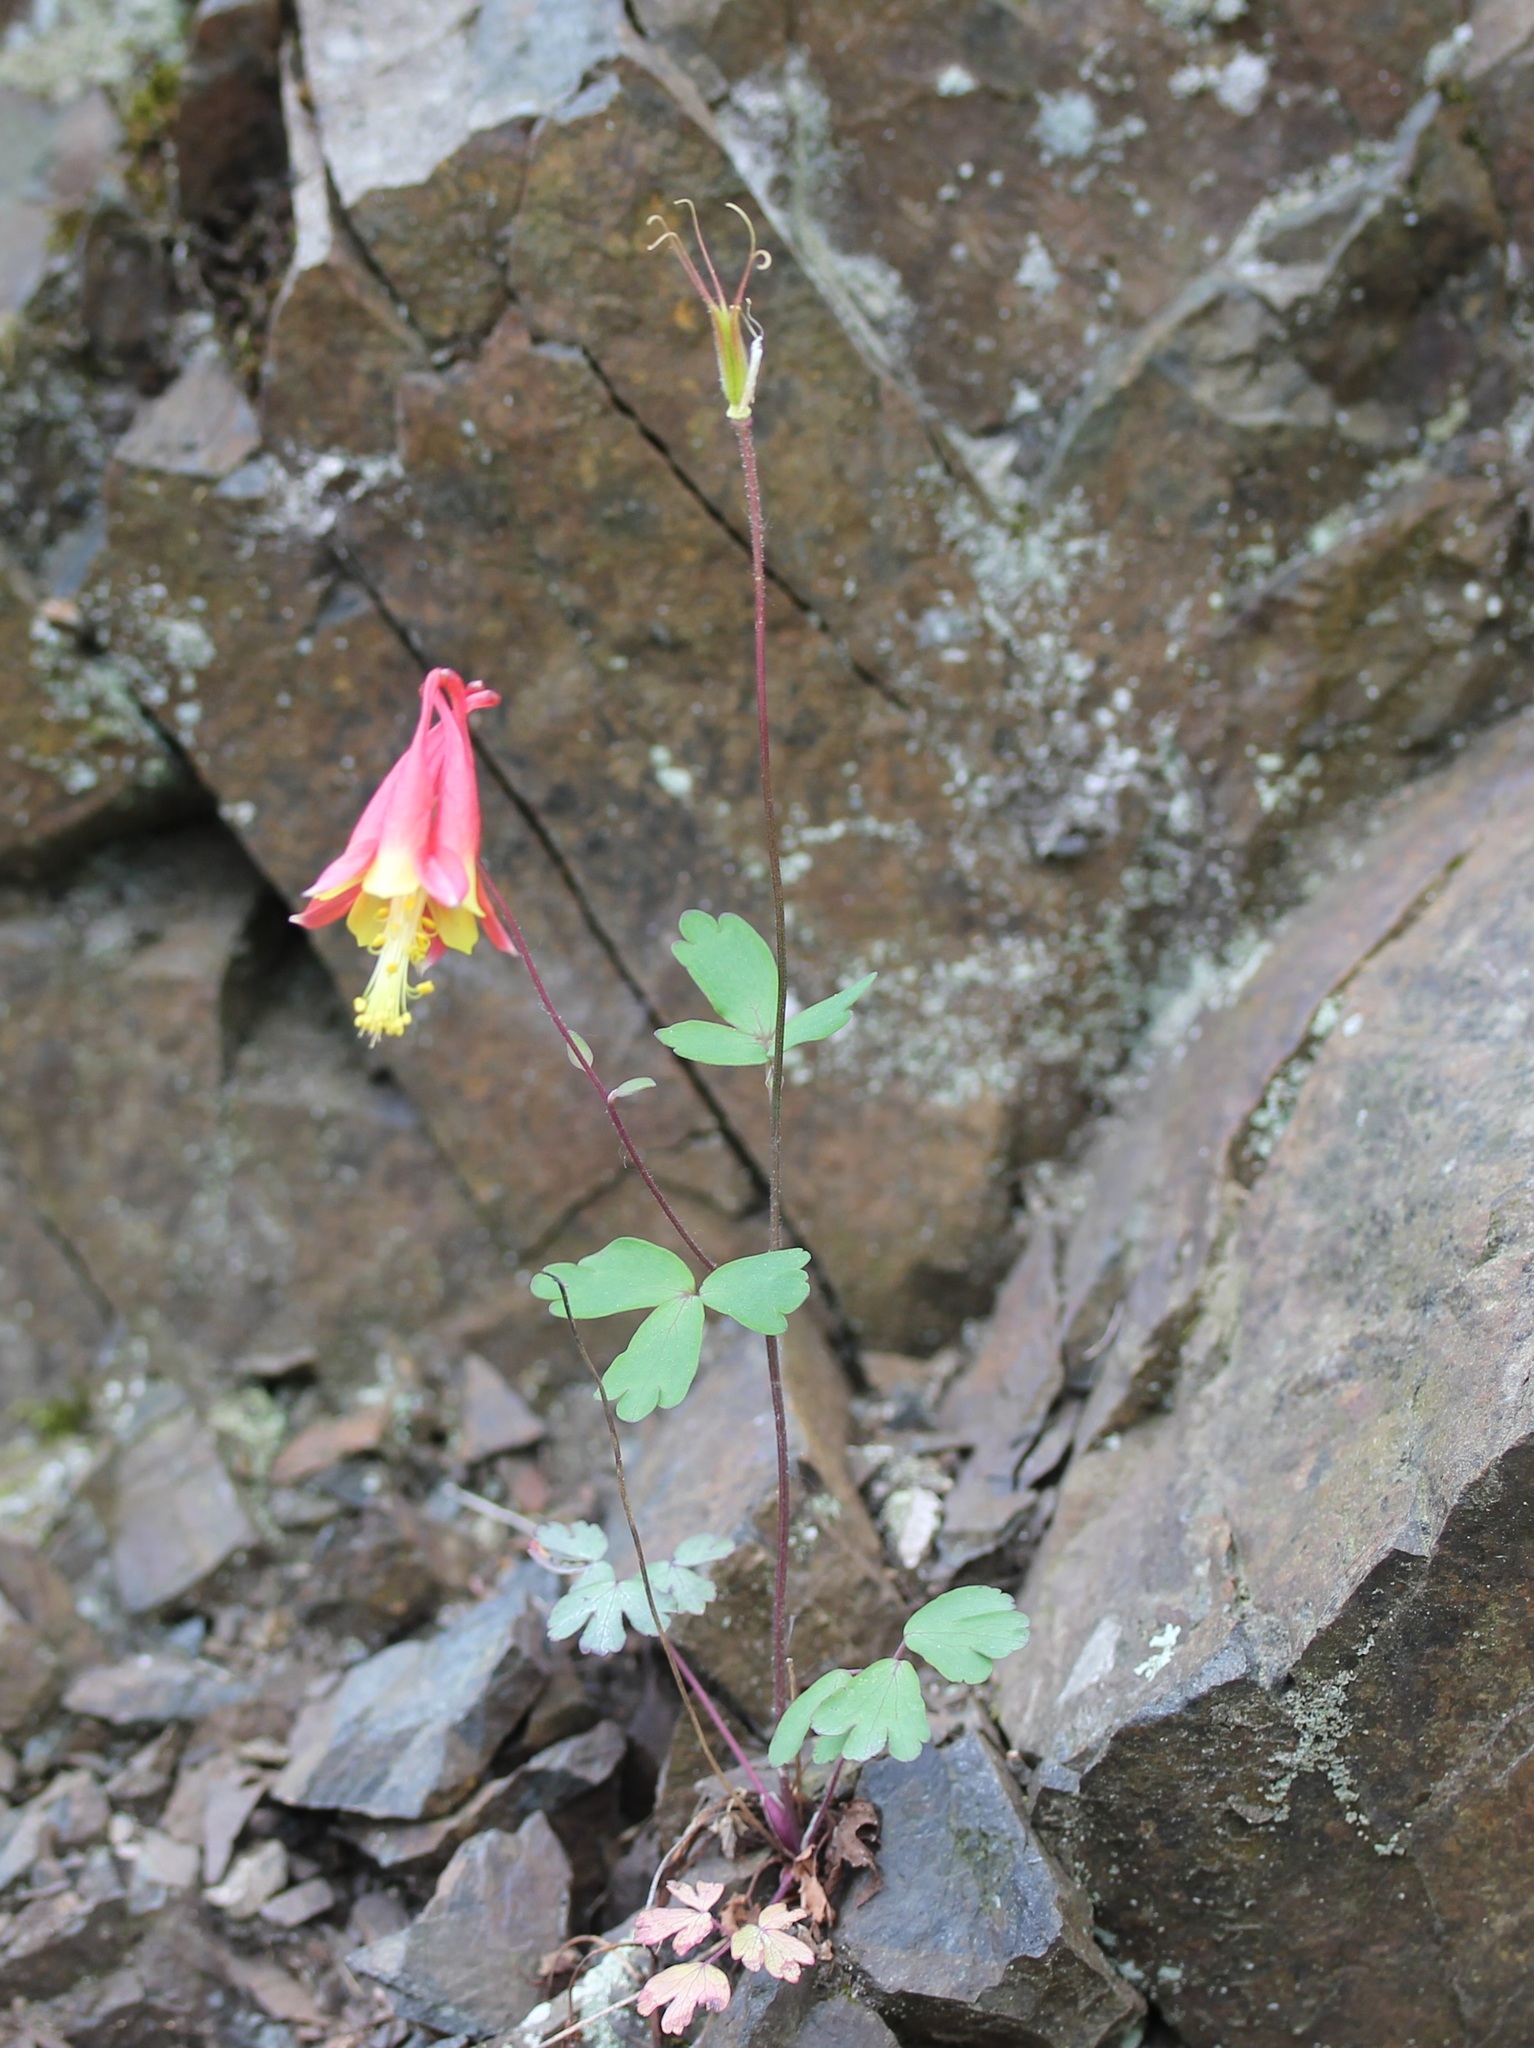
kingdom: Plantae
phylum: Tracheophyta
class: Magnoliopsida
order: Ranunculales
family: Ranunculaceae
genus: Aquilegia
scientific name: Aquilegia canadensis
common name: American columbine
